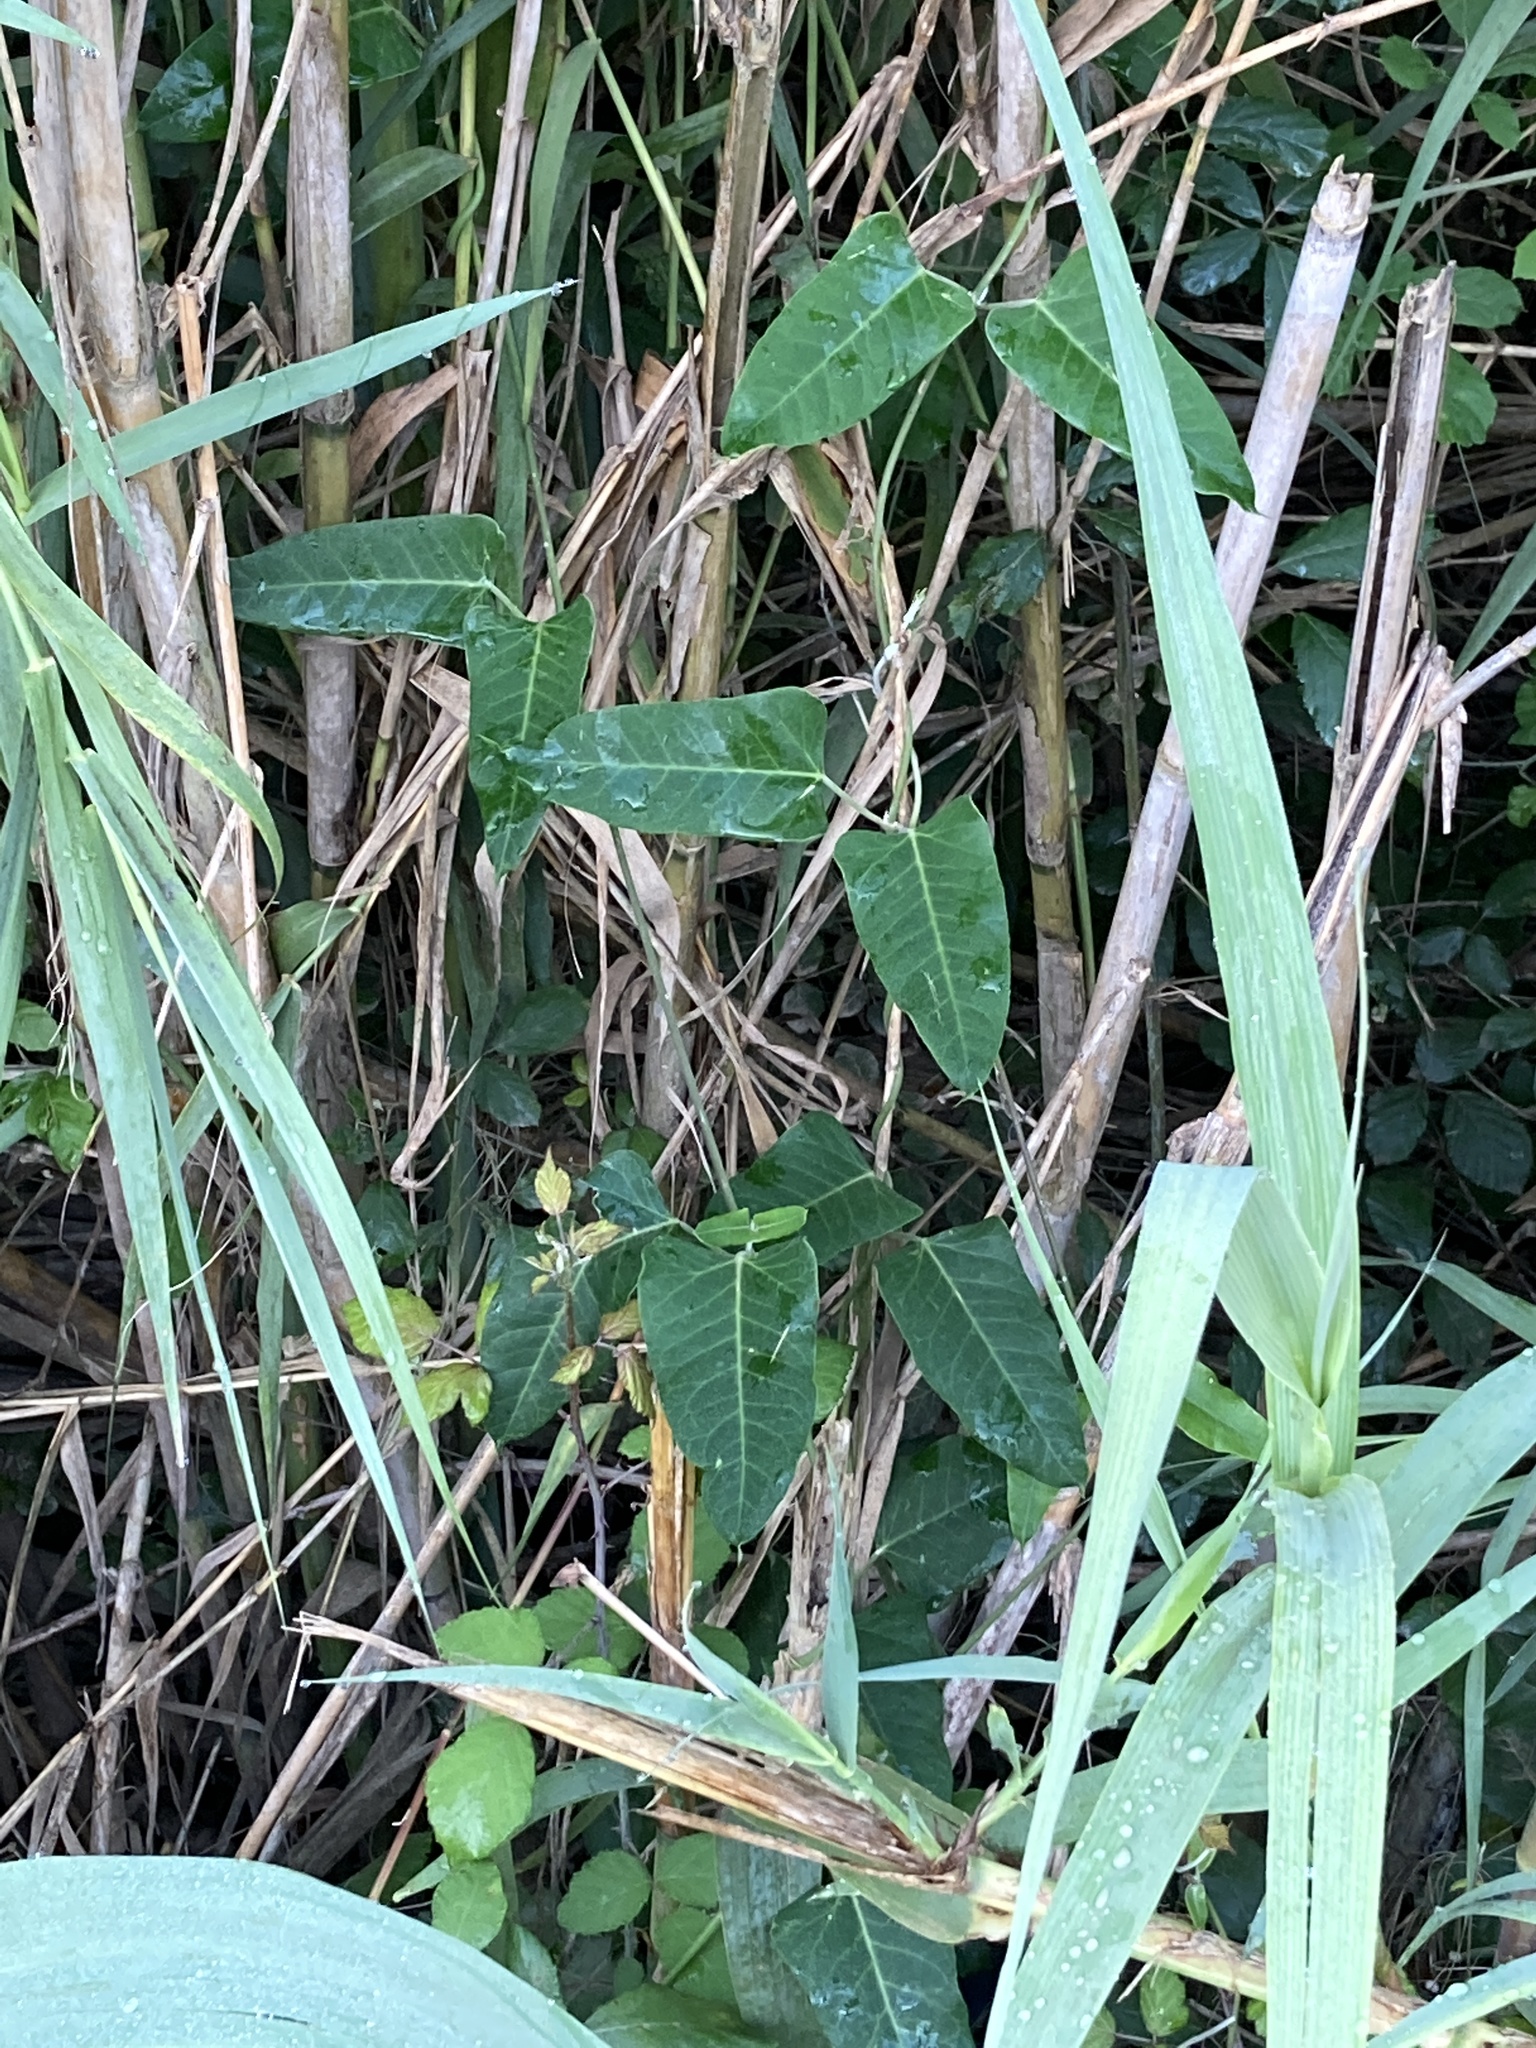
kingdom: Plantae
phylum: Tracheophyta
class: Magnoliopsida
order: Gentianales
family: Apocynaceae
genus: Araujia
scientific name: Araujia sericifera
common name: White bladderflower
